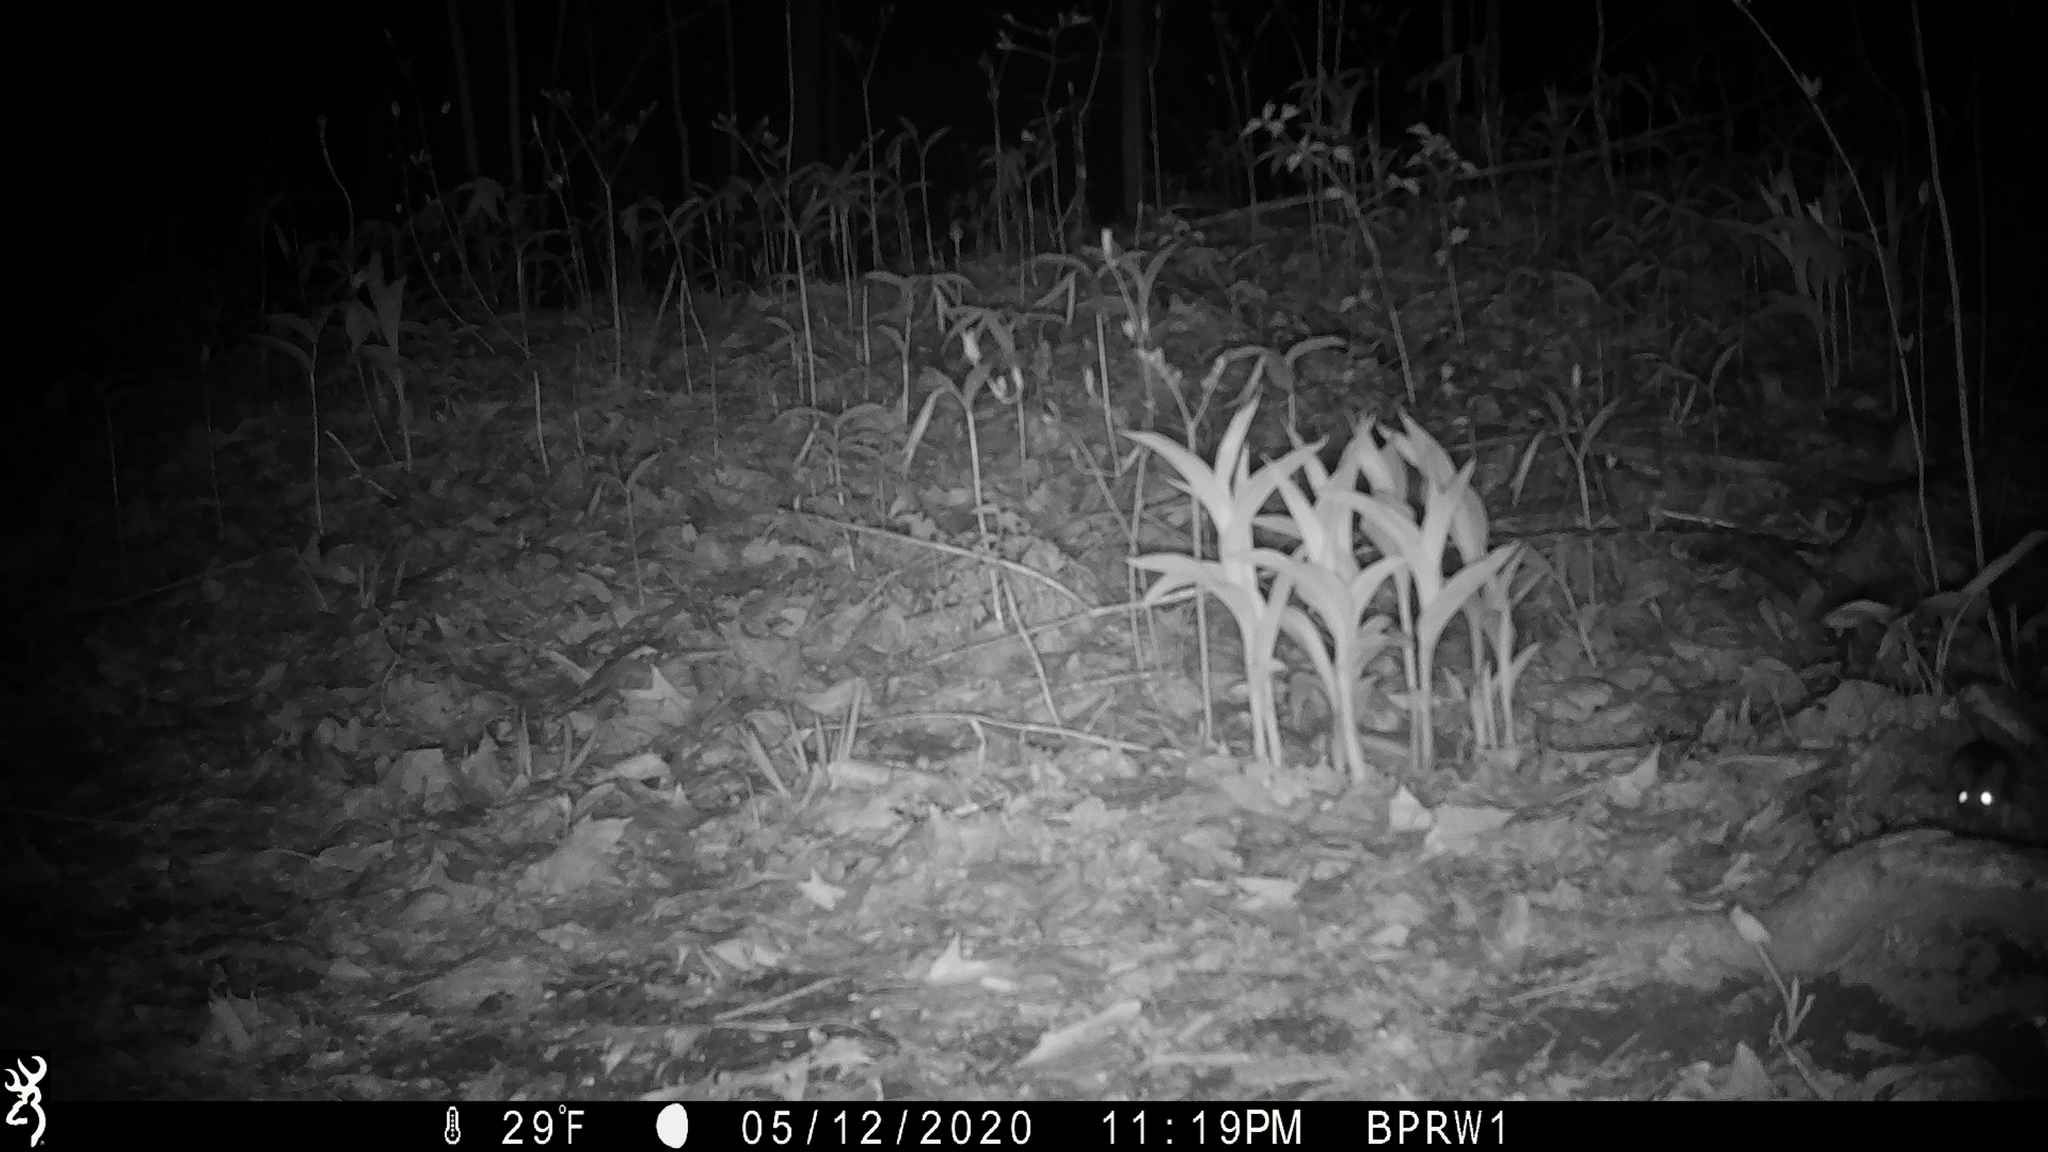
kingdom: Animalia
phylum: Chordata
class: Mammalia
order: Rodentia
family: Cricetidae
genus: Peromyscus
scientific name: Peromyscus
